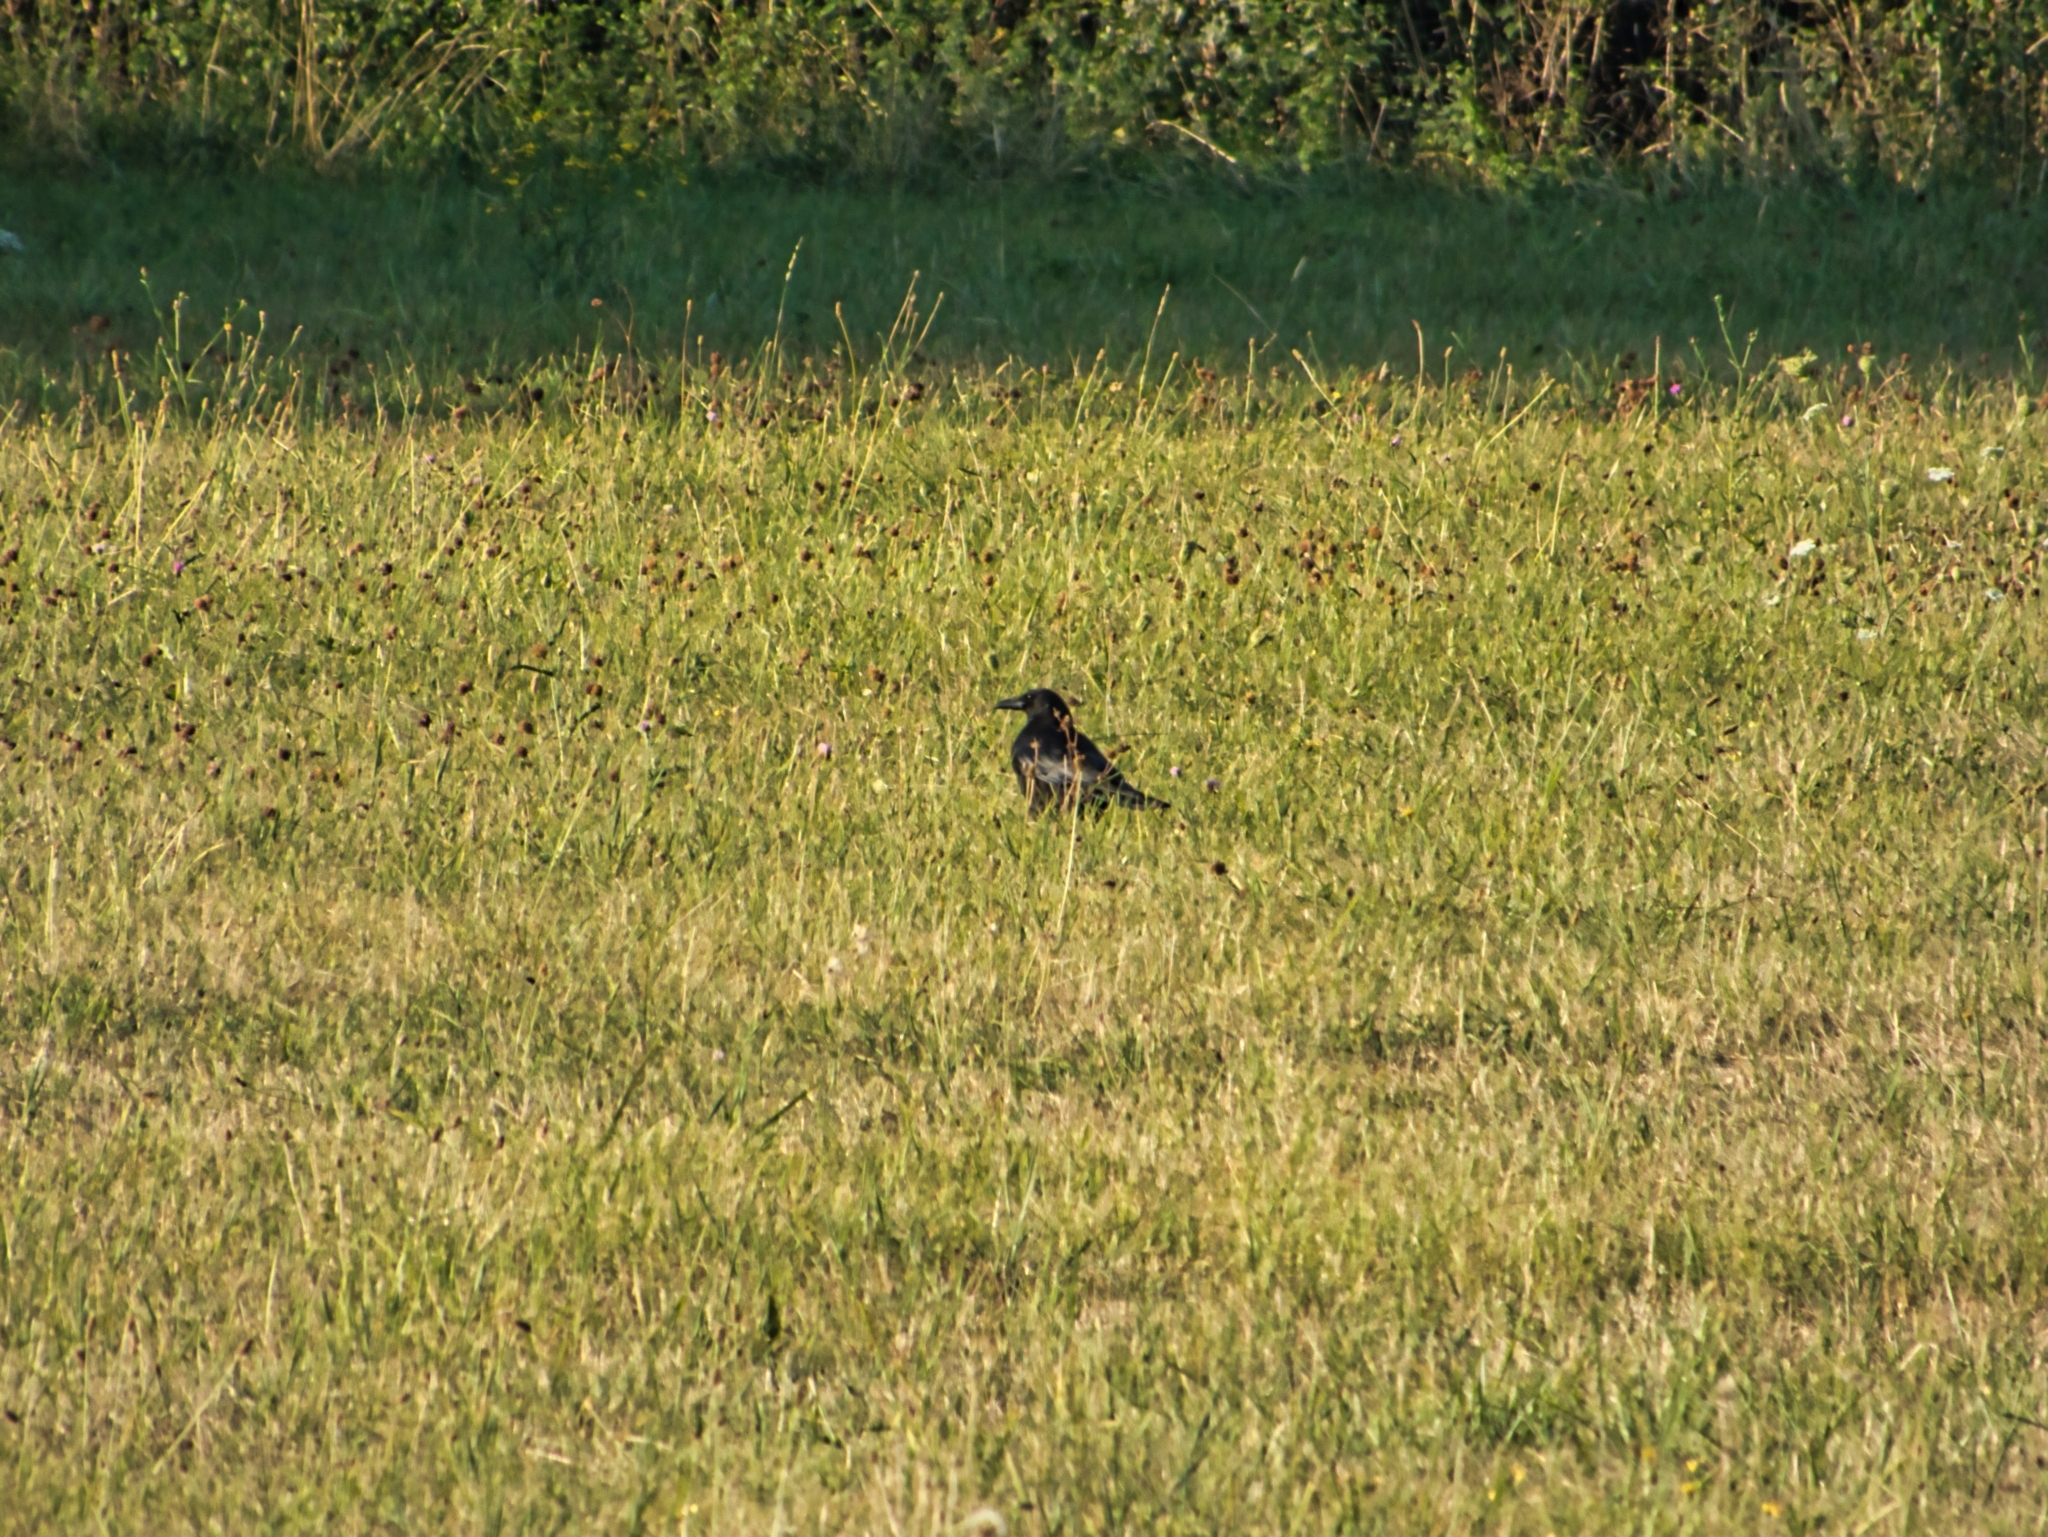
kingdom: Animalia
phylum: Chordata
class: Aves
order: Passeriformes
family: Corvidae
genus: Corvus
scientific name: Corvus corone
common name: Carrion crow
